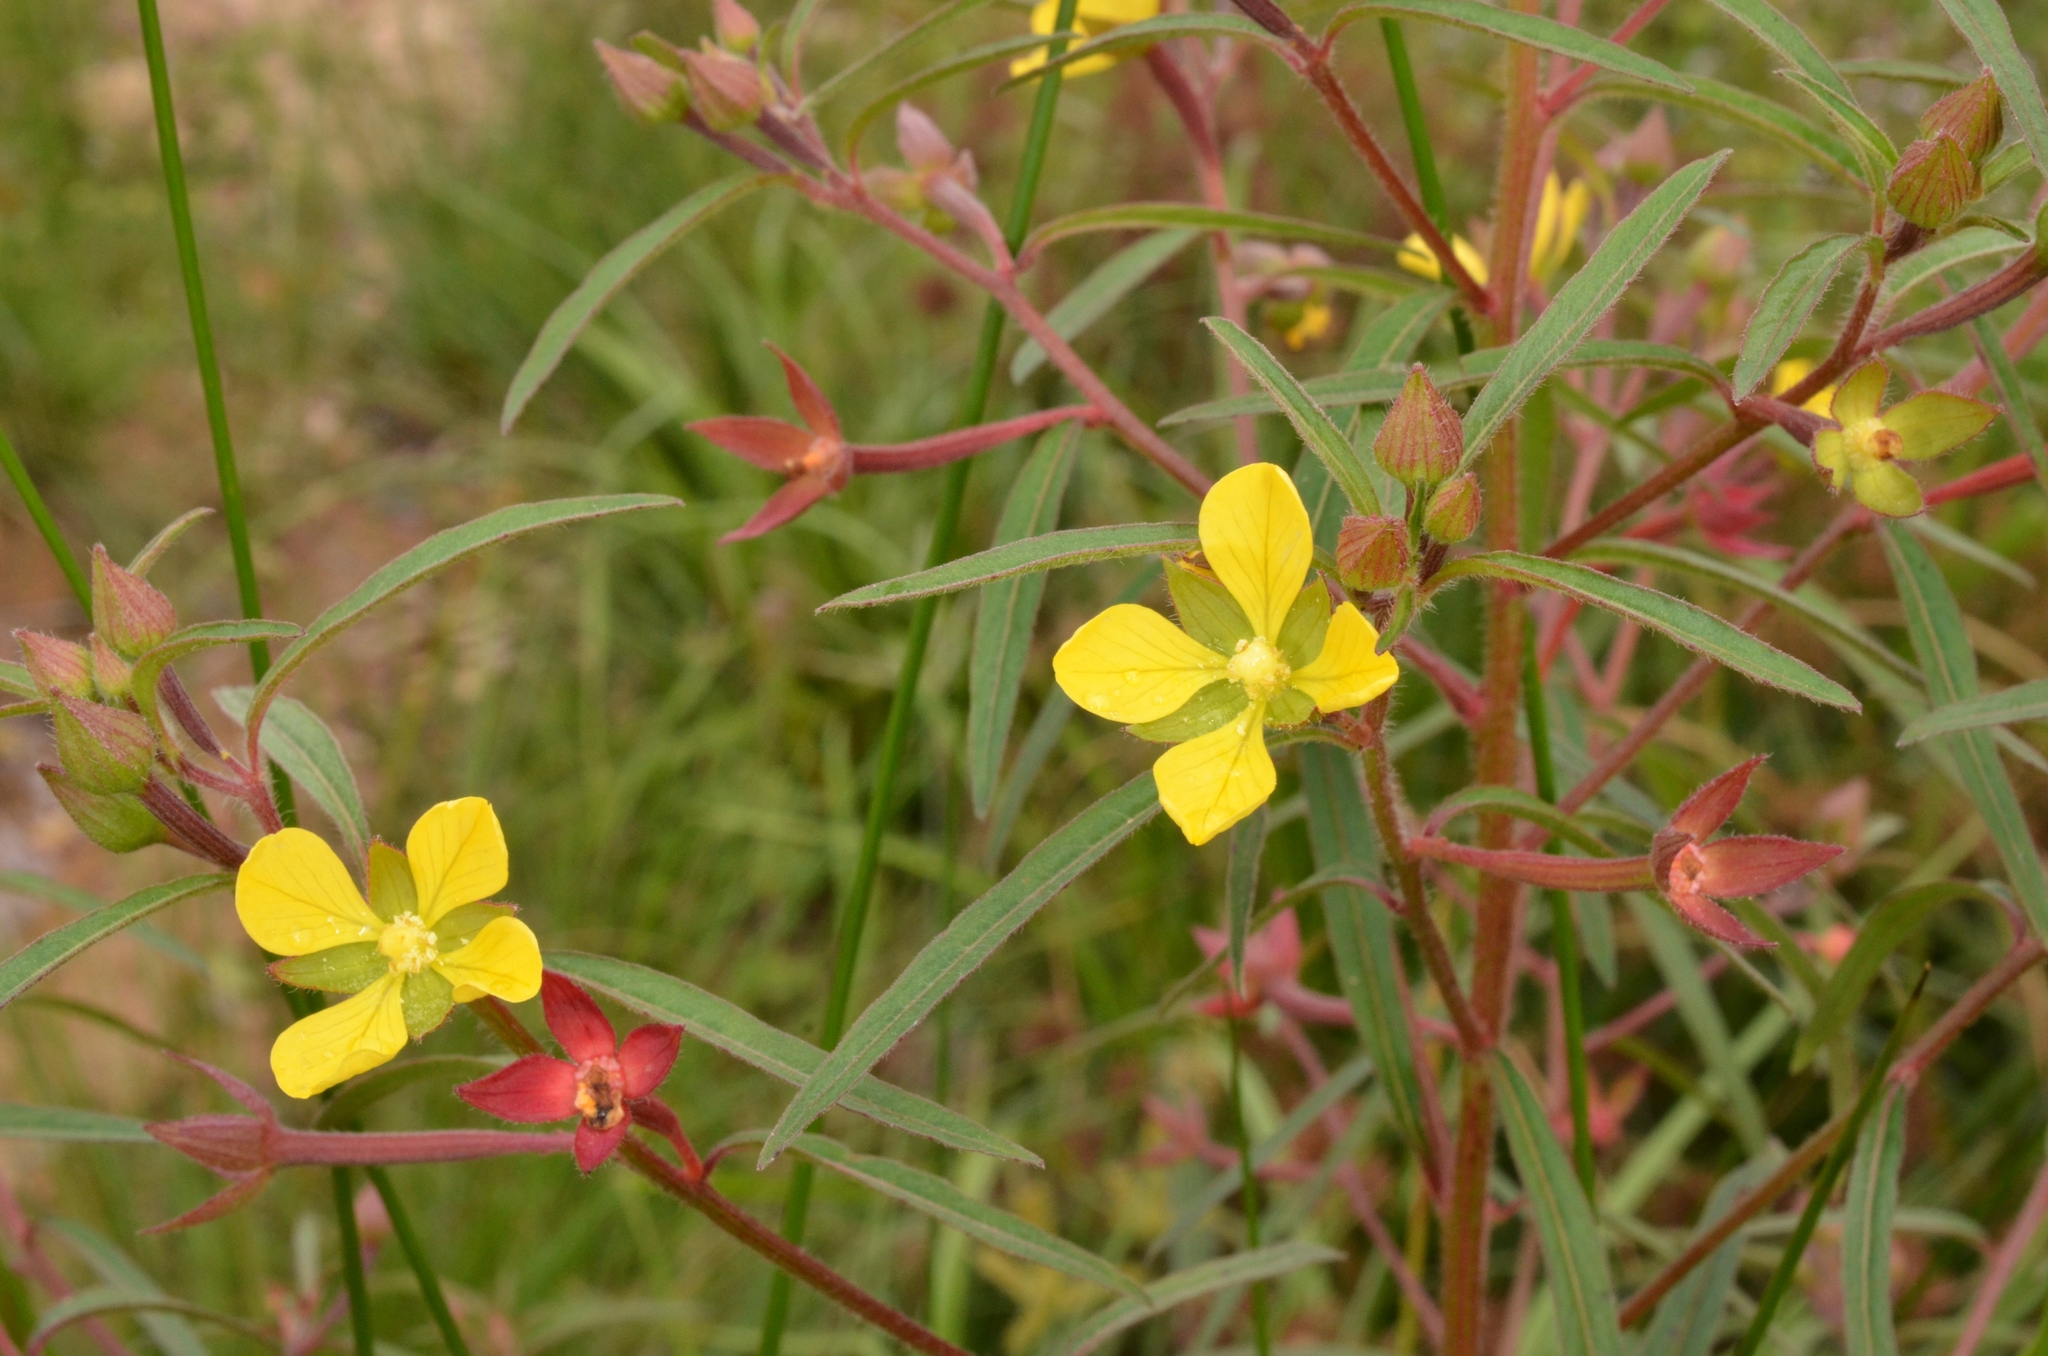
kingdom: Plantae
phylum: Tracheophyta
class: Magnoliopsida
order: Myrtales
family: Onagraceae
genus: Ludwigia
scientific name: Ludwigia octovalvis
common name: Water-primrose
